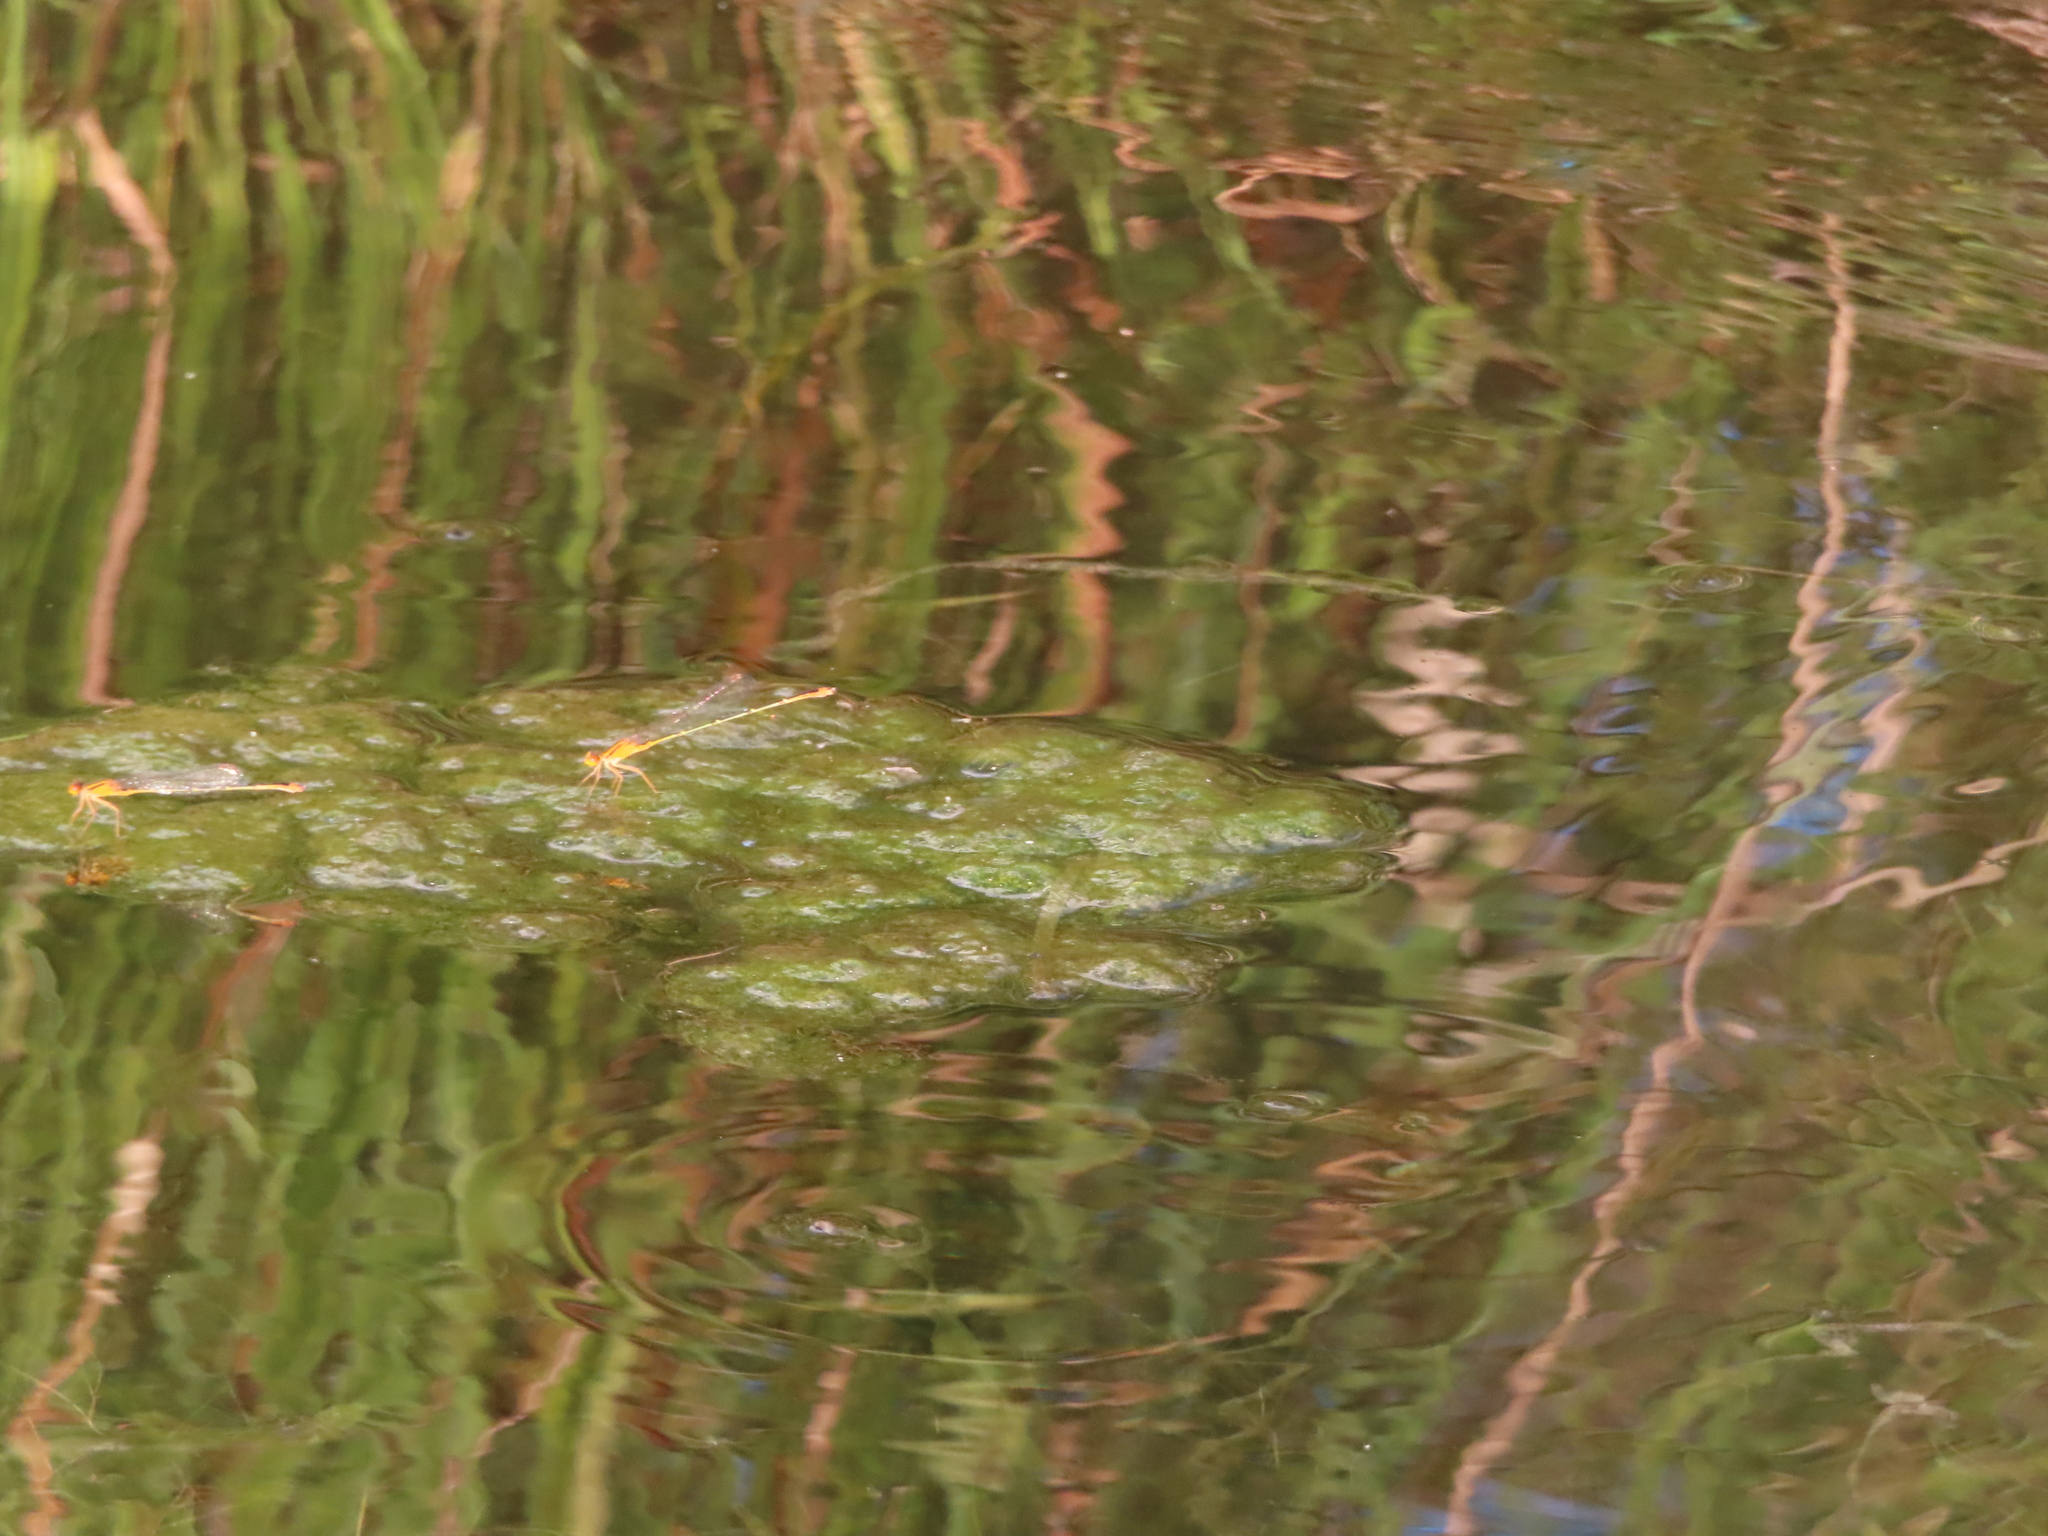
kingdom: Animalia
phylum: Arthropoda
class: Insecta
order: Odonata
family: Coenagrionidae
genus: Enallagma
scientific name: Enallagma signatum
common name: Orange bluet
